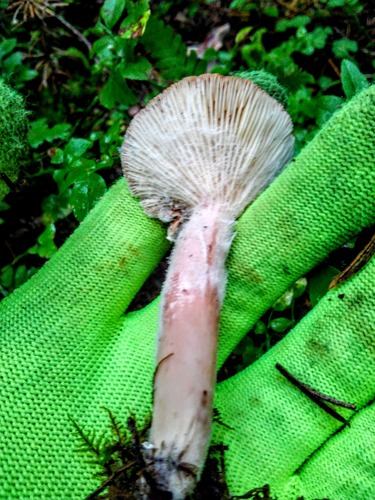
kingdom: Fungi
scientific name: Fungi
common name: Fungi
